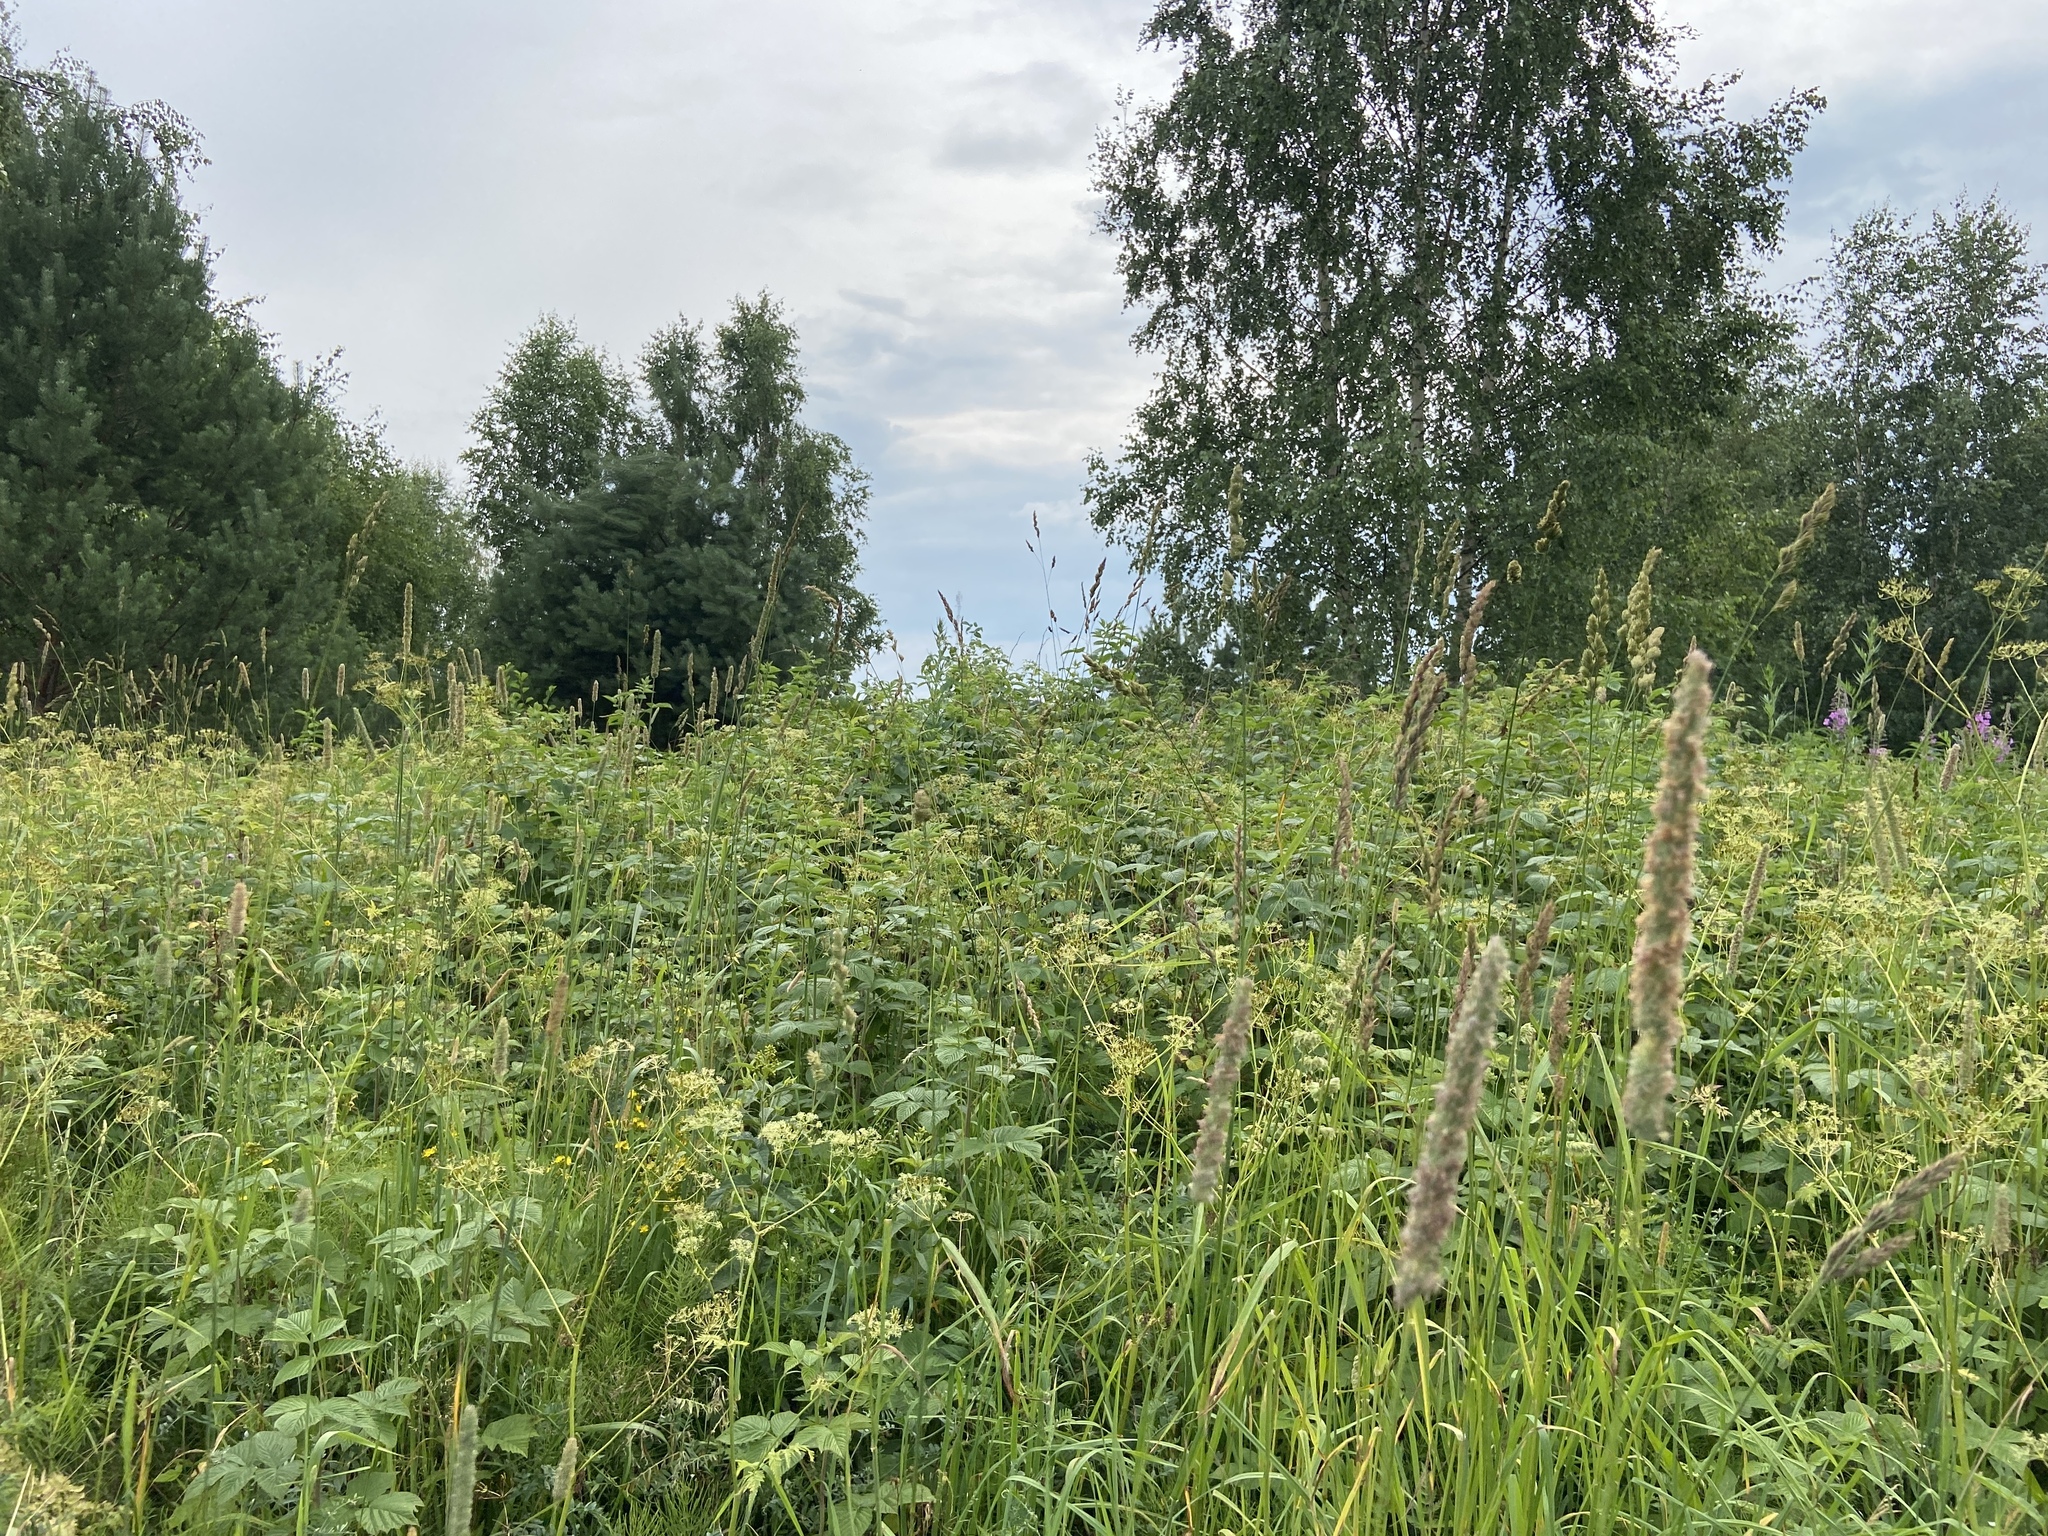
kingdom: Plantae
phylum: Tracheophyta
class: Magnoliopsida
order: Rosales
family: Rosaceae
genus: Filipendula
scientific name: Filipendula ulmaria
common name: Meadowsweet
